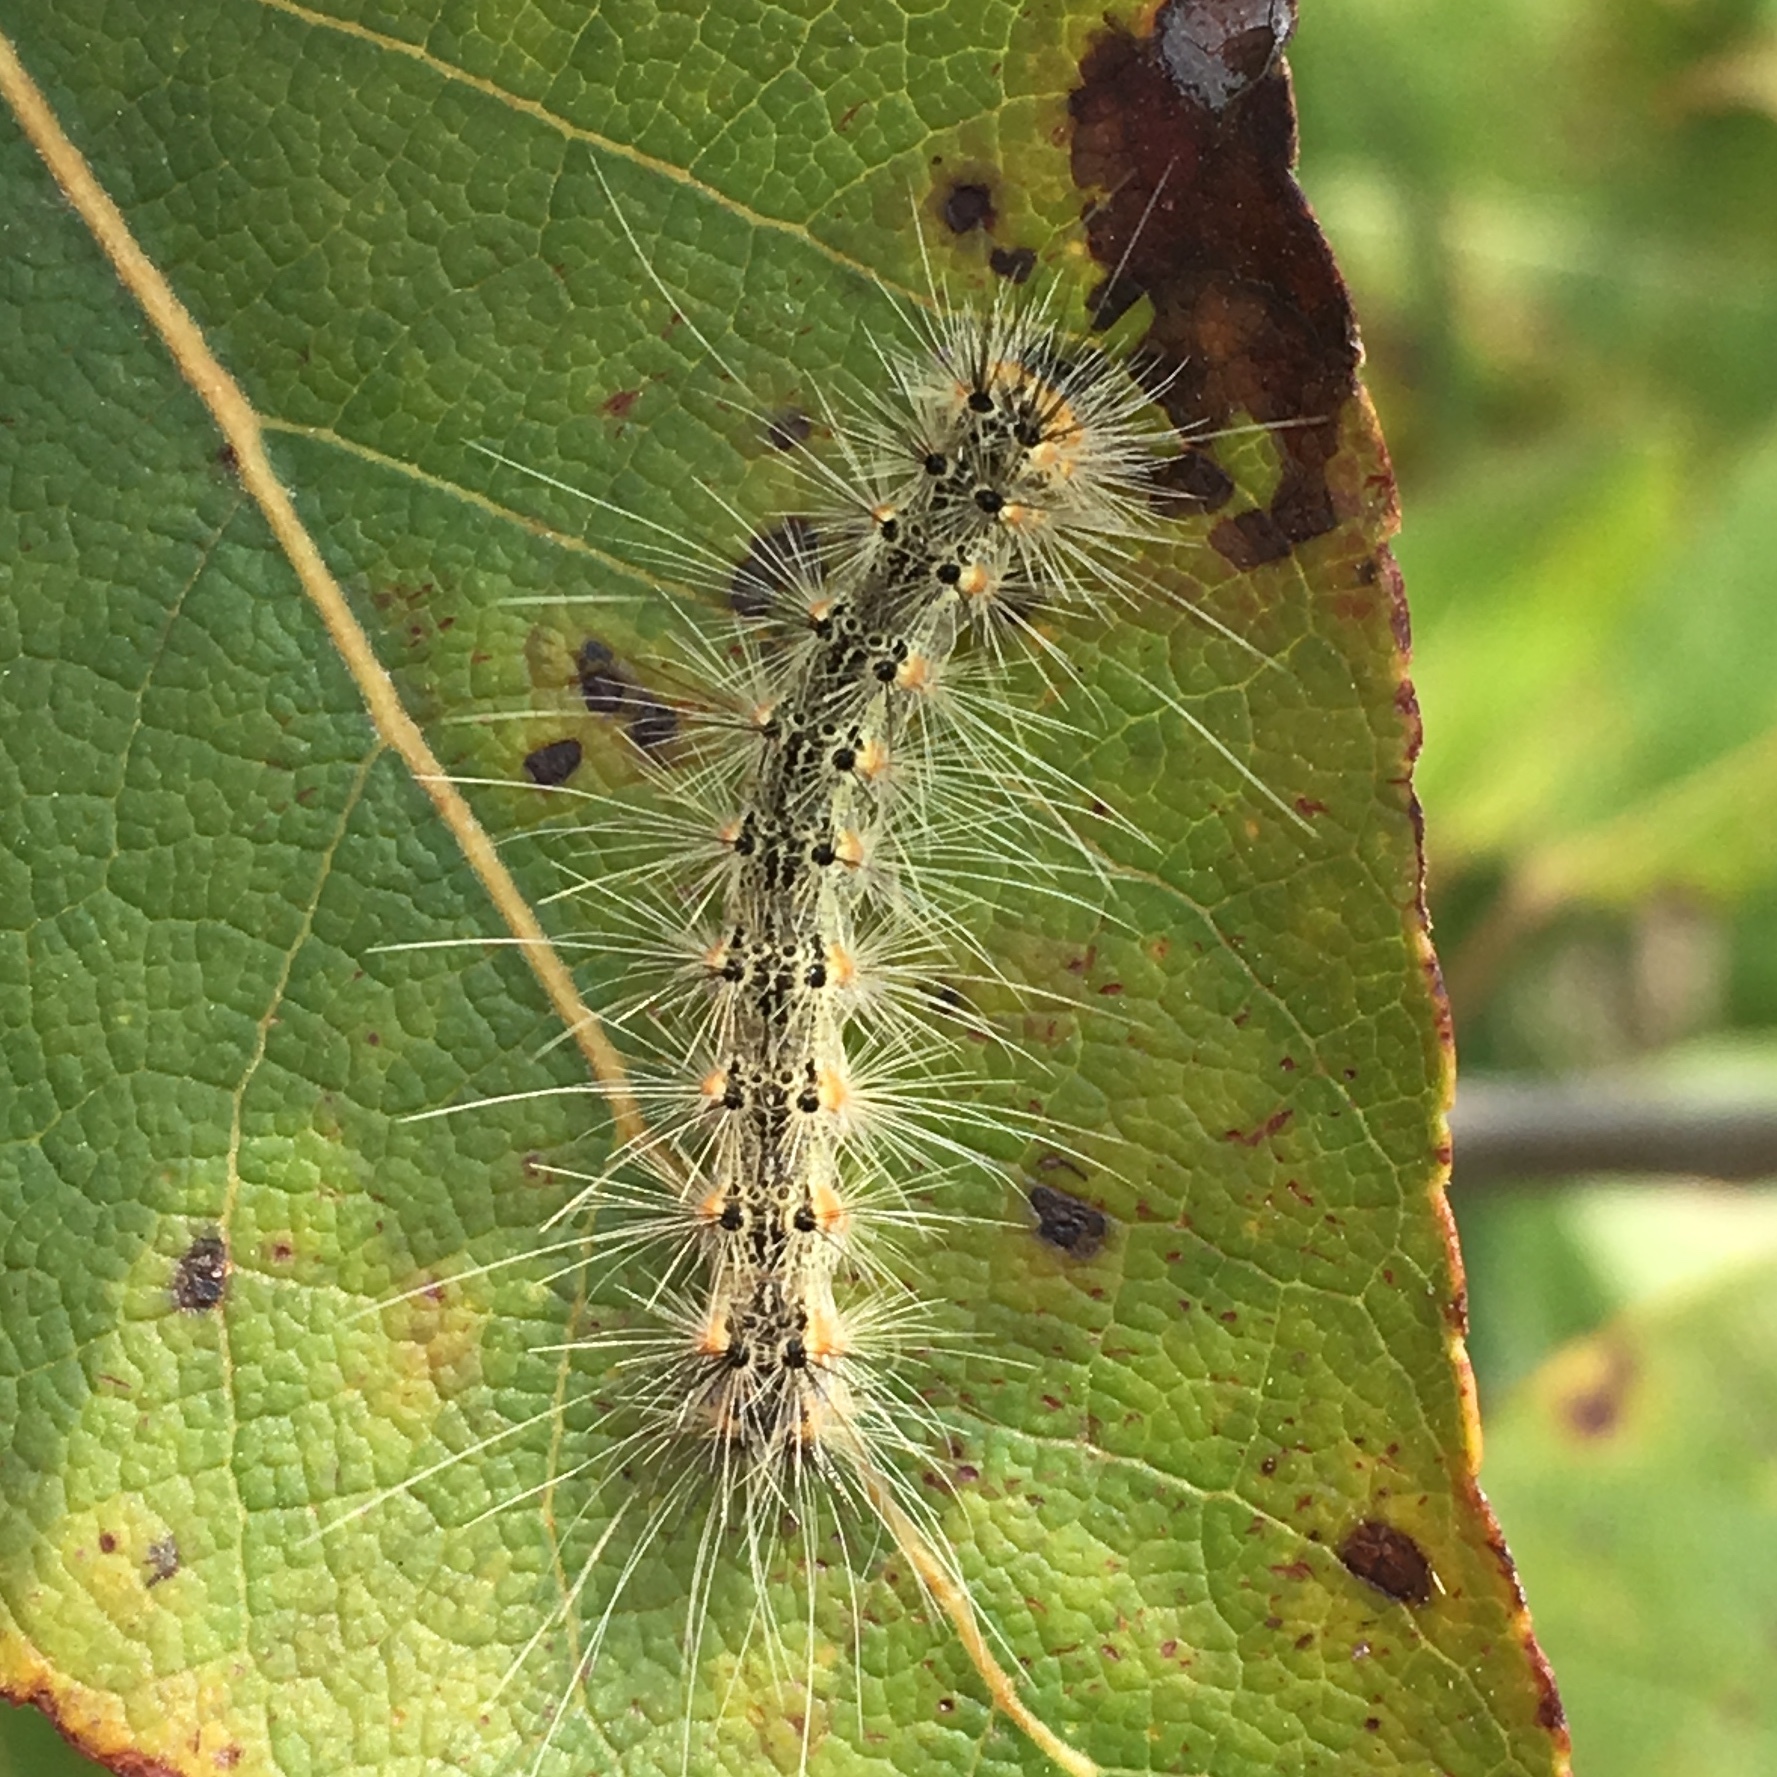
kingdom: Animalia
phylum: Arthropoda
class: Insecta
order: Lepidoptera
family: Erebidae
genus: Hyphantria
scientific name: Hyphantria cunea
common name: American white moth
